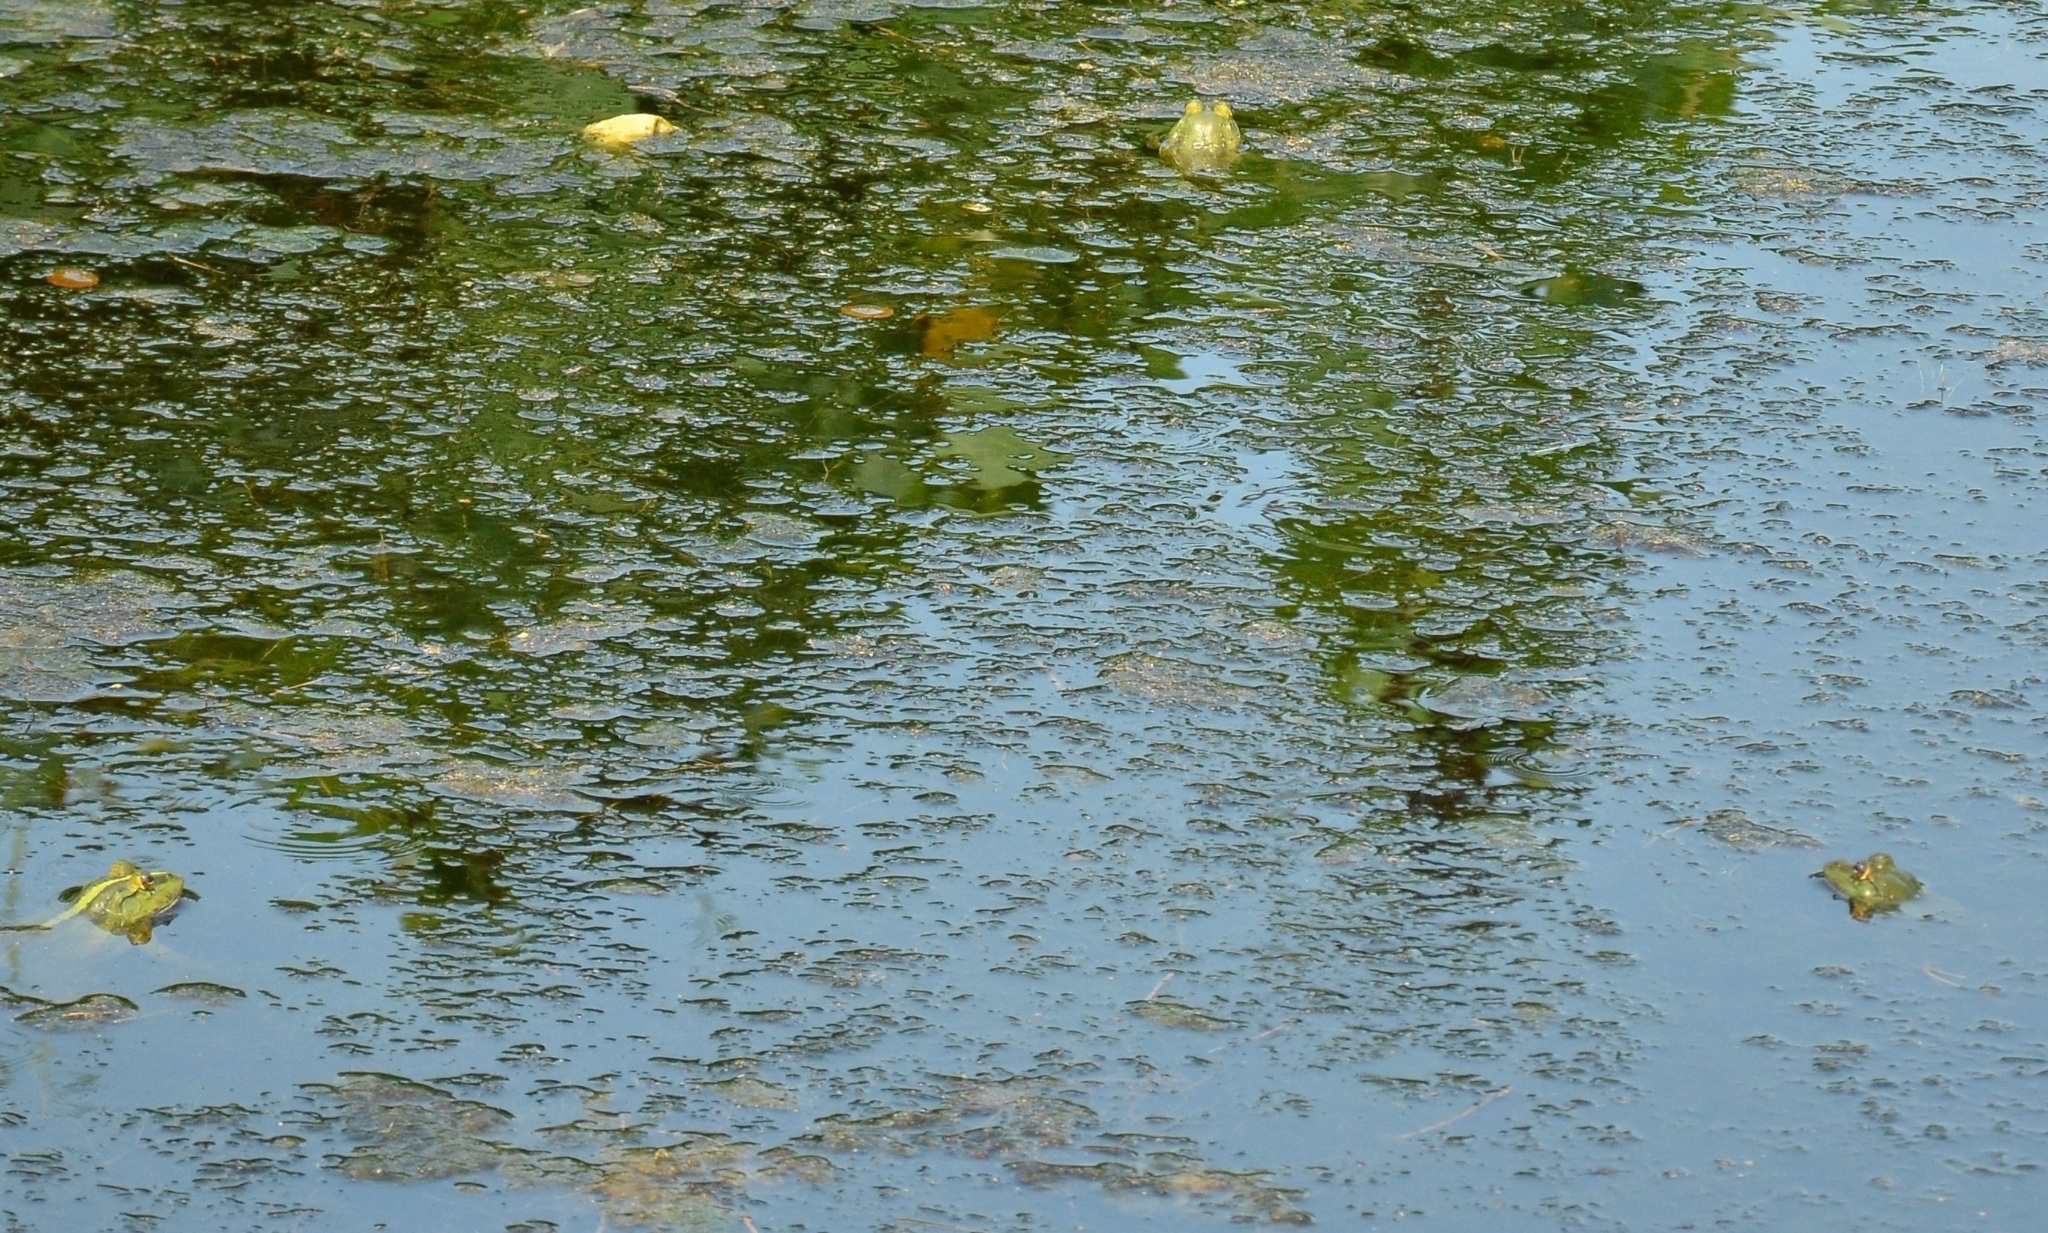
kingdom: Animalia
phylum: Chordata
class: Amphibia
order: Anura
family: Dicroglossidae
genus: Euphlyctis
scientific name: Euphlyctis karaavali
